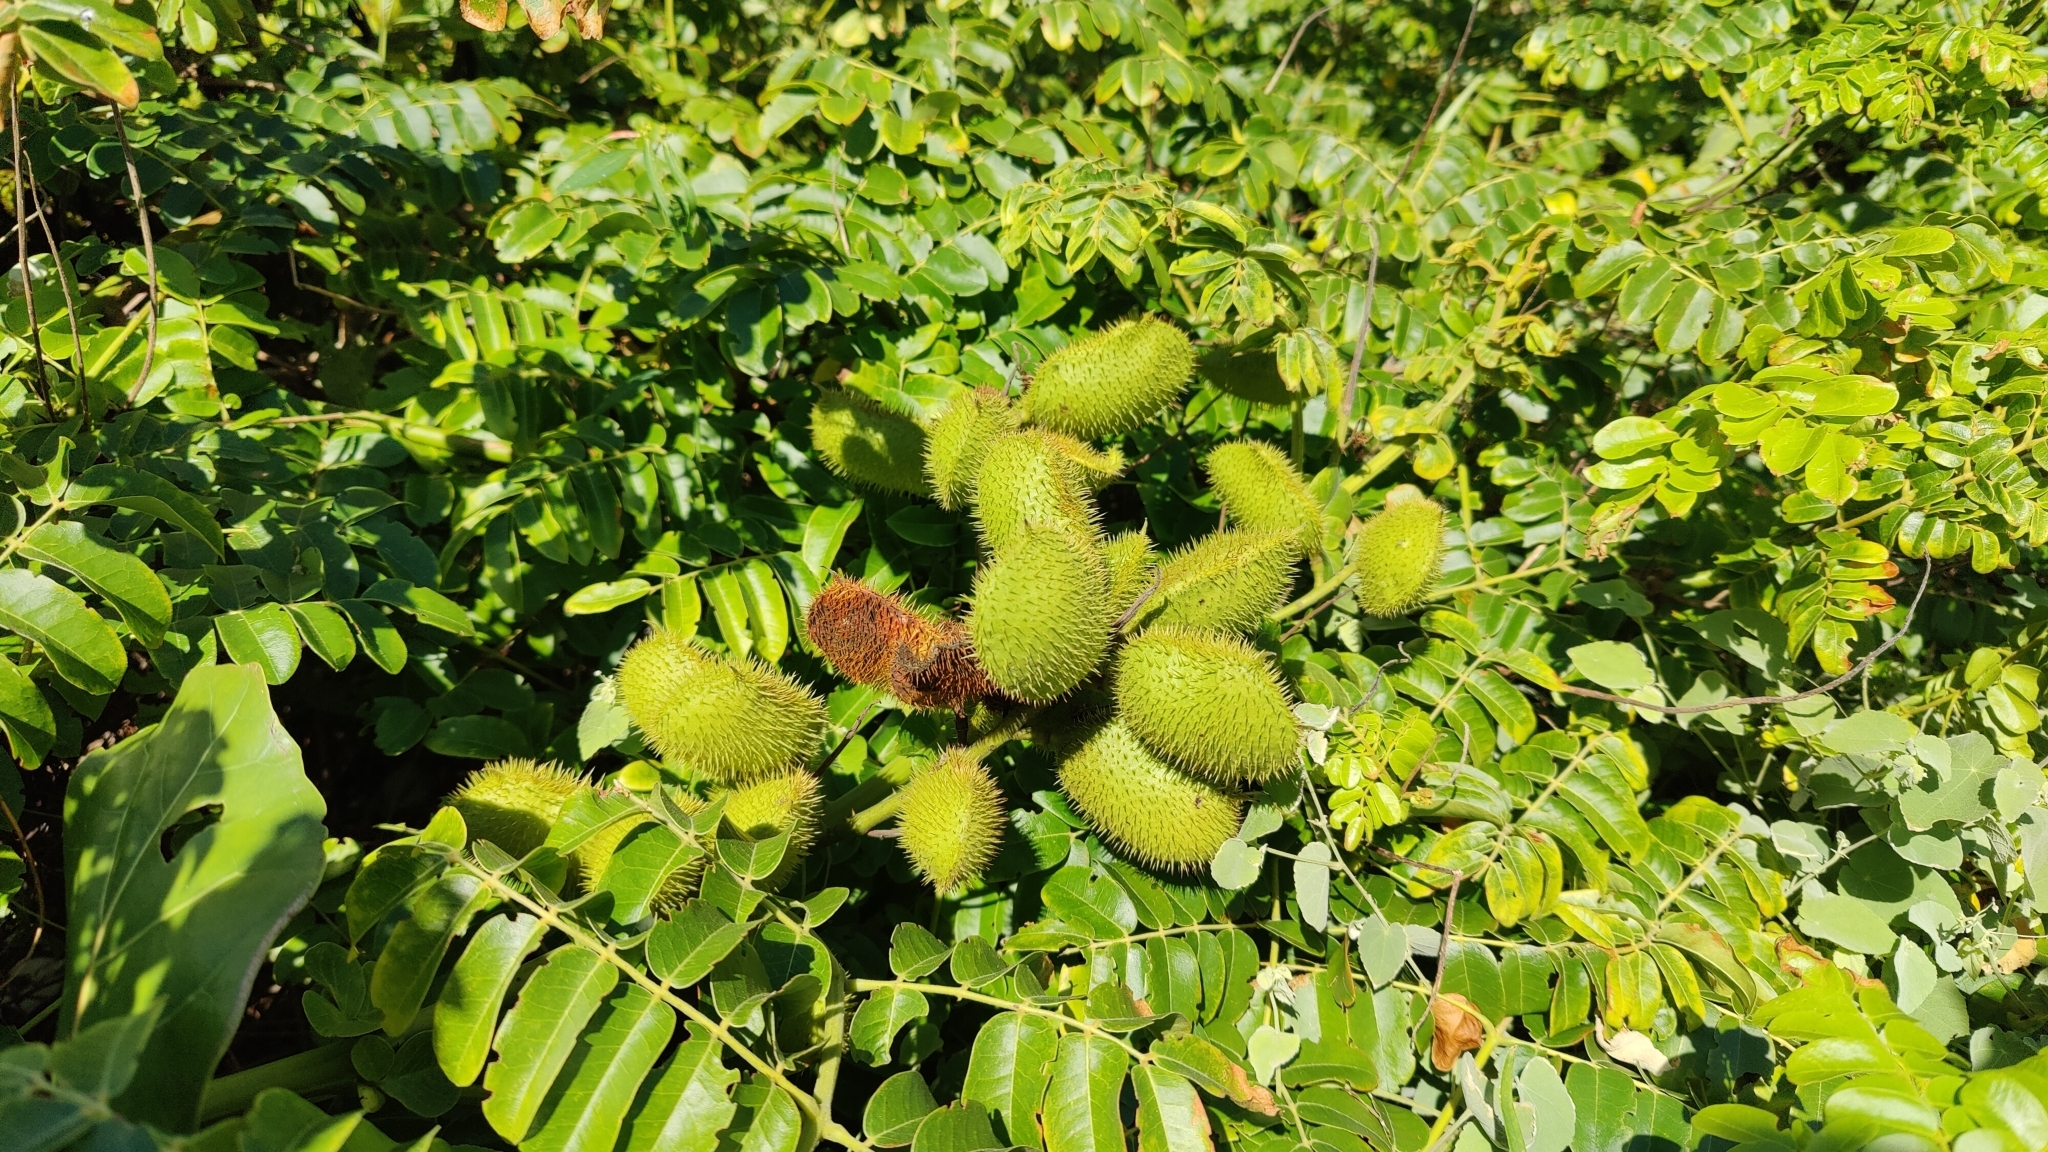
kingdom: Plantae
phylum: Tracheophyta
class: Magnoliopsida
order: Fabales
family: Fabaceae
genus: Guilandina
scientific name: Guilandina bonduc
